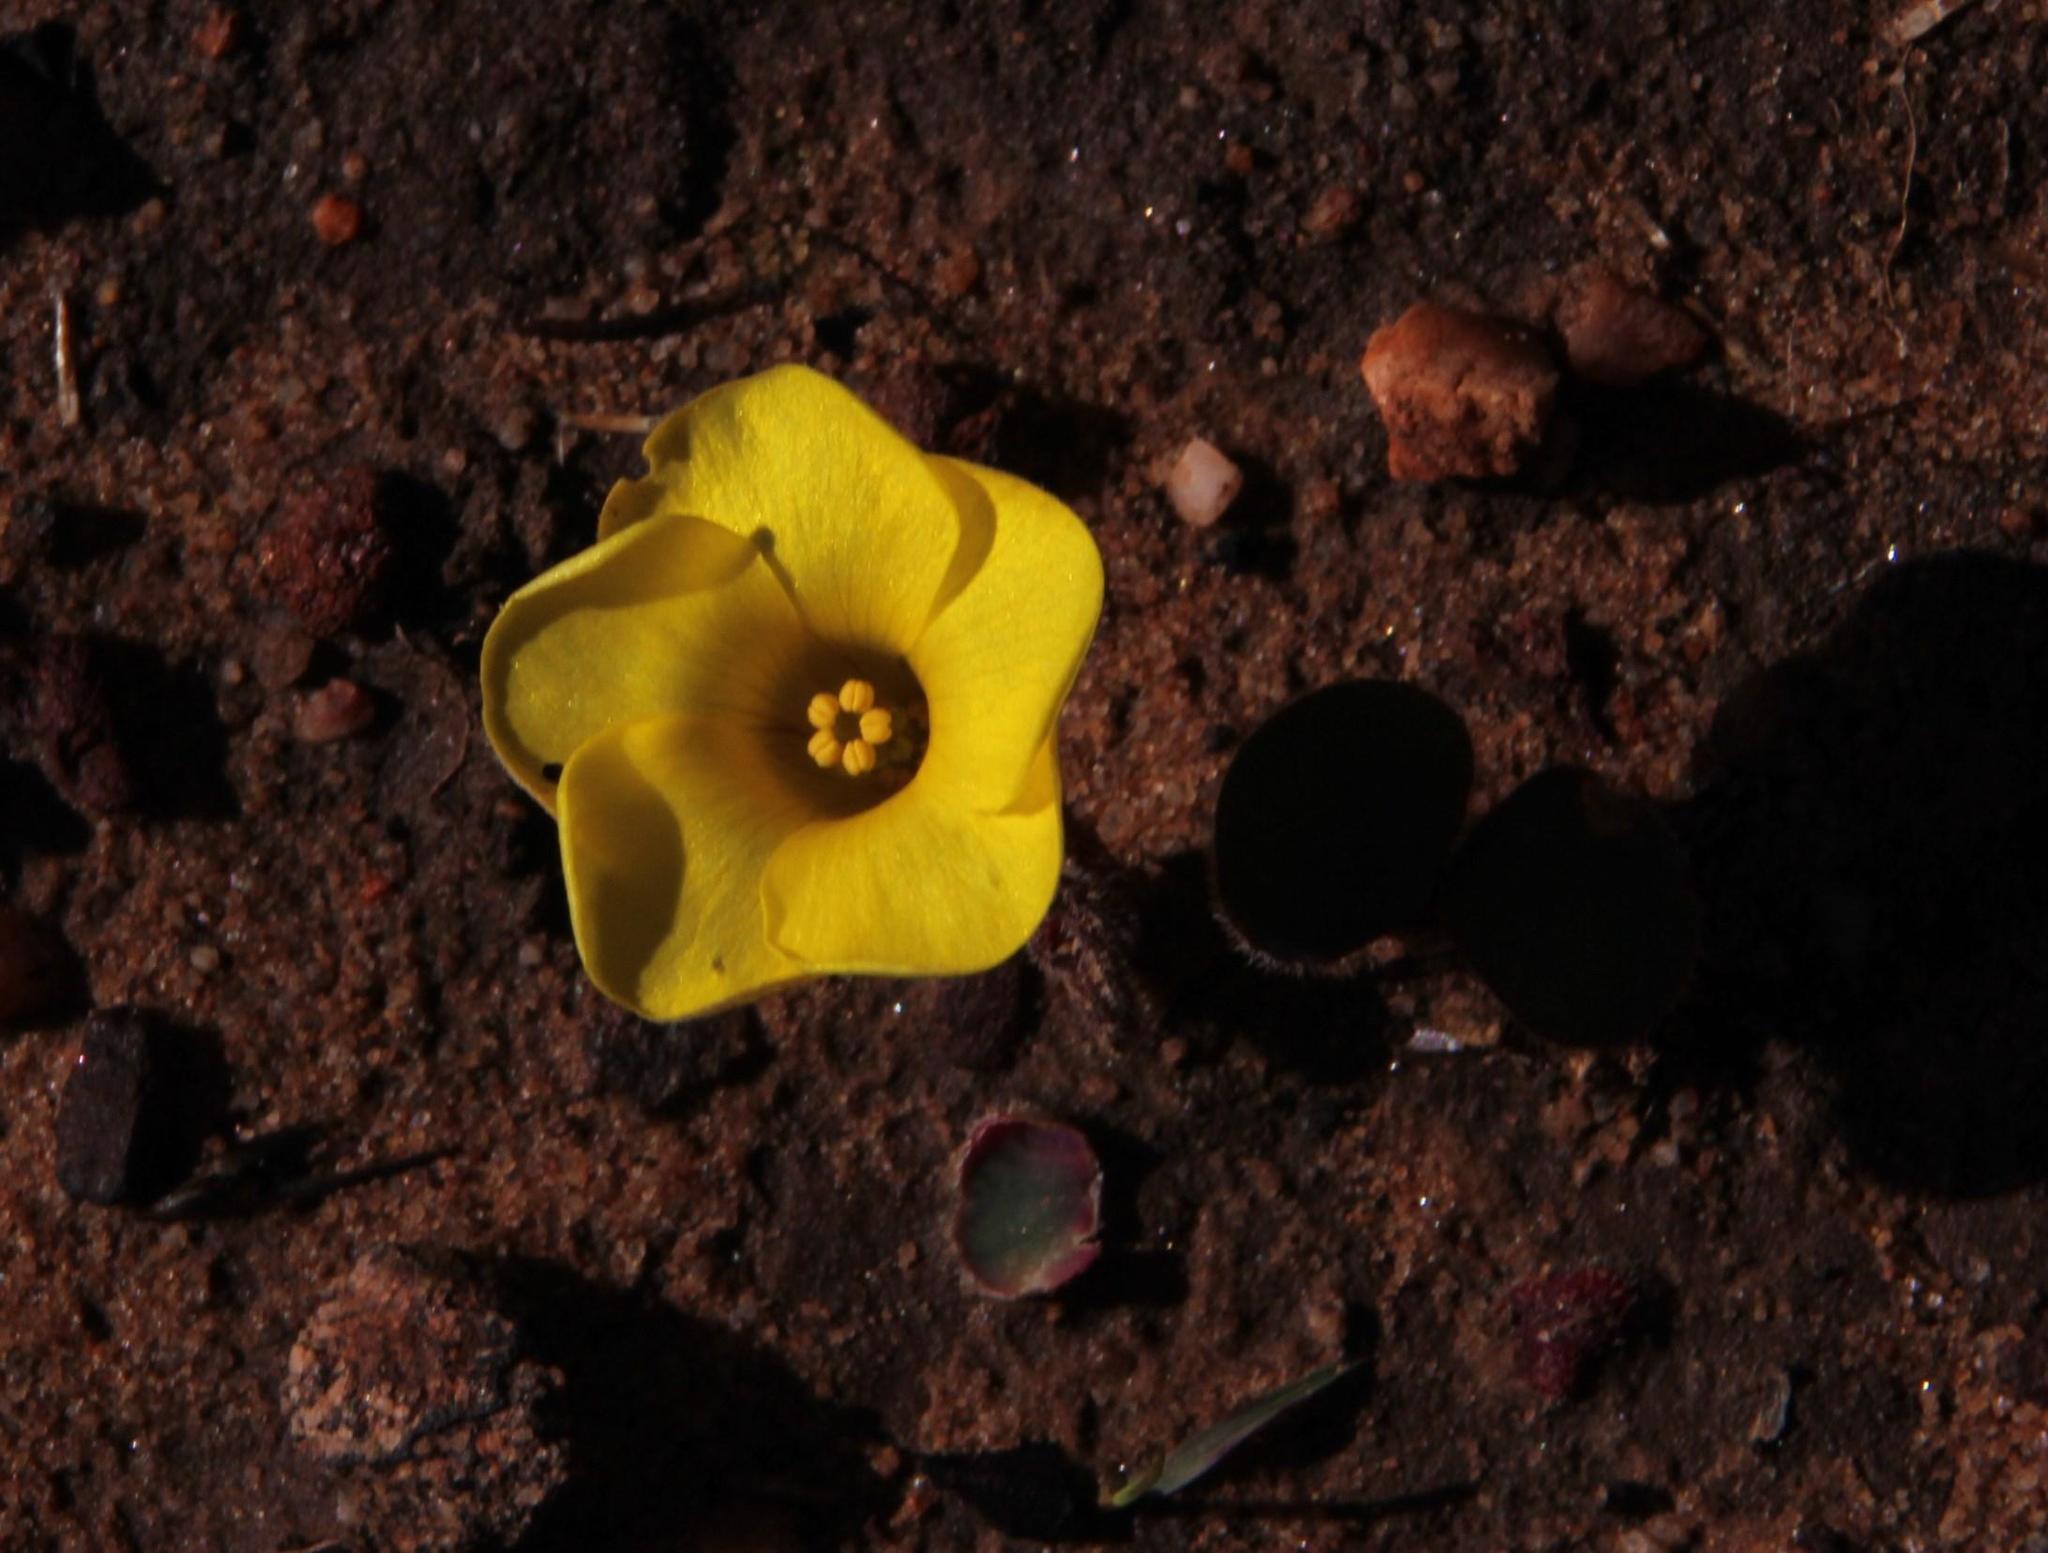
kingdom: Plantae
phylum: Tracheophyta
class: Magnoliopsida
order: Oxalidales
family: Oxalidaceae
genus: Oxalis
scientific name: Oxalis luteola
